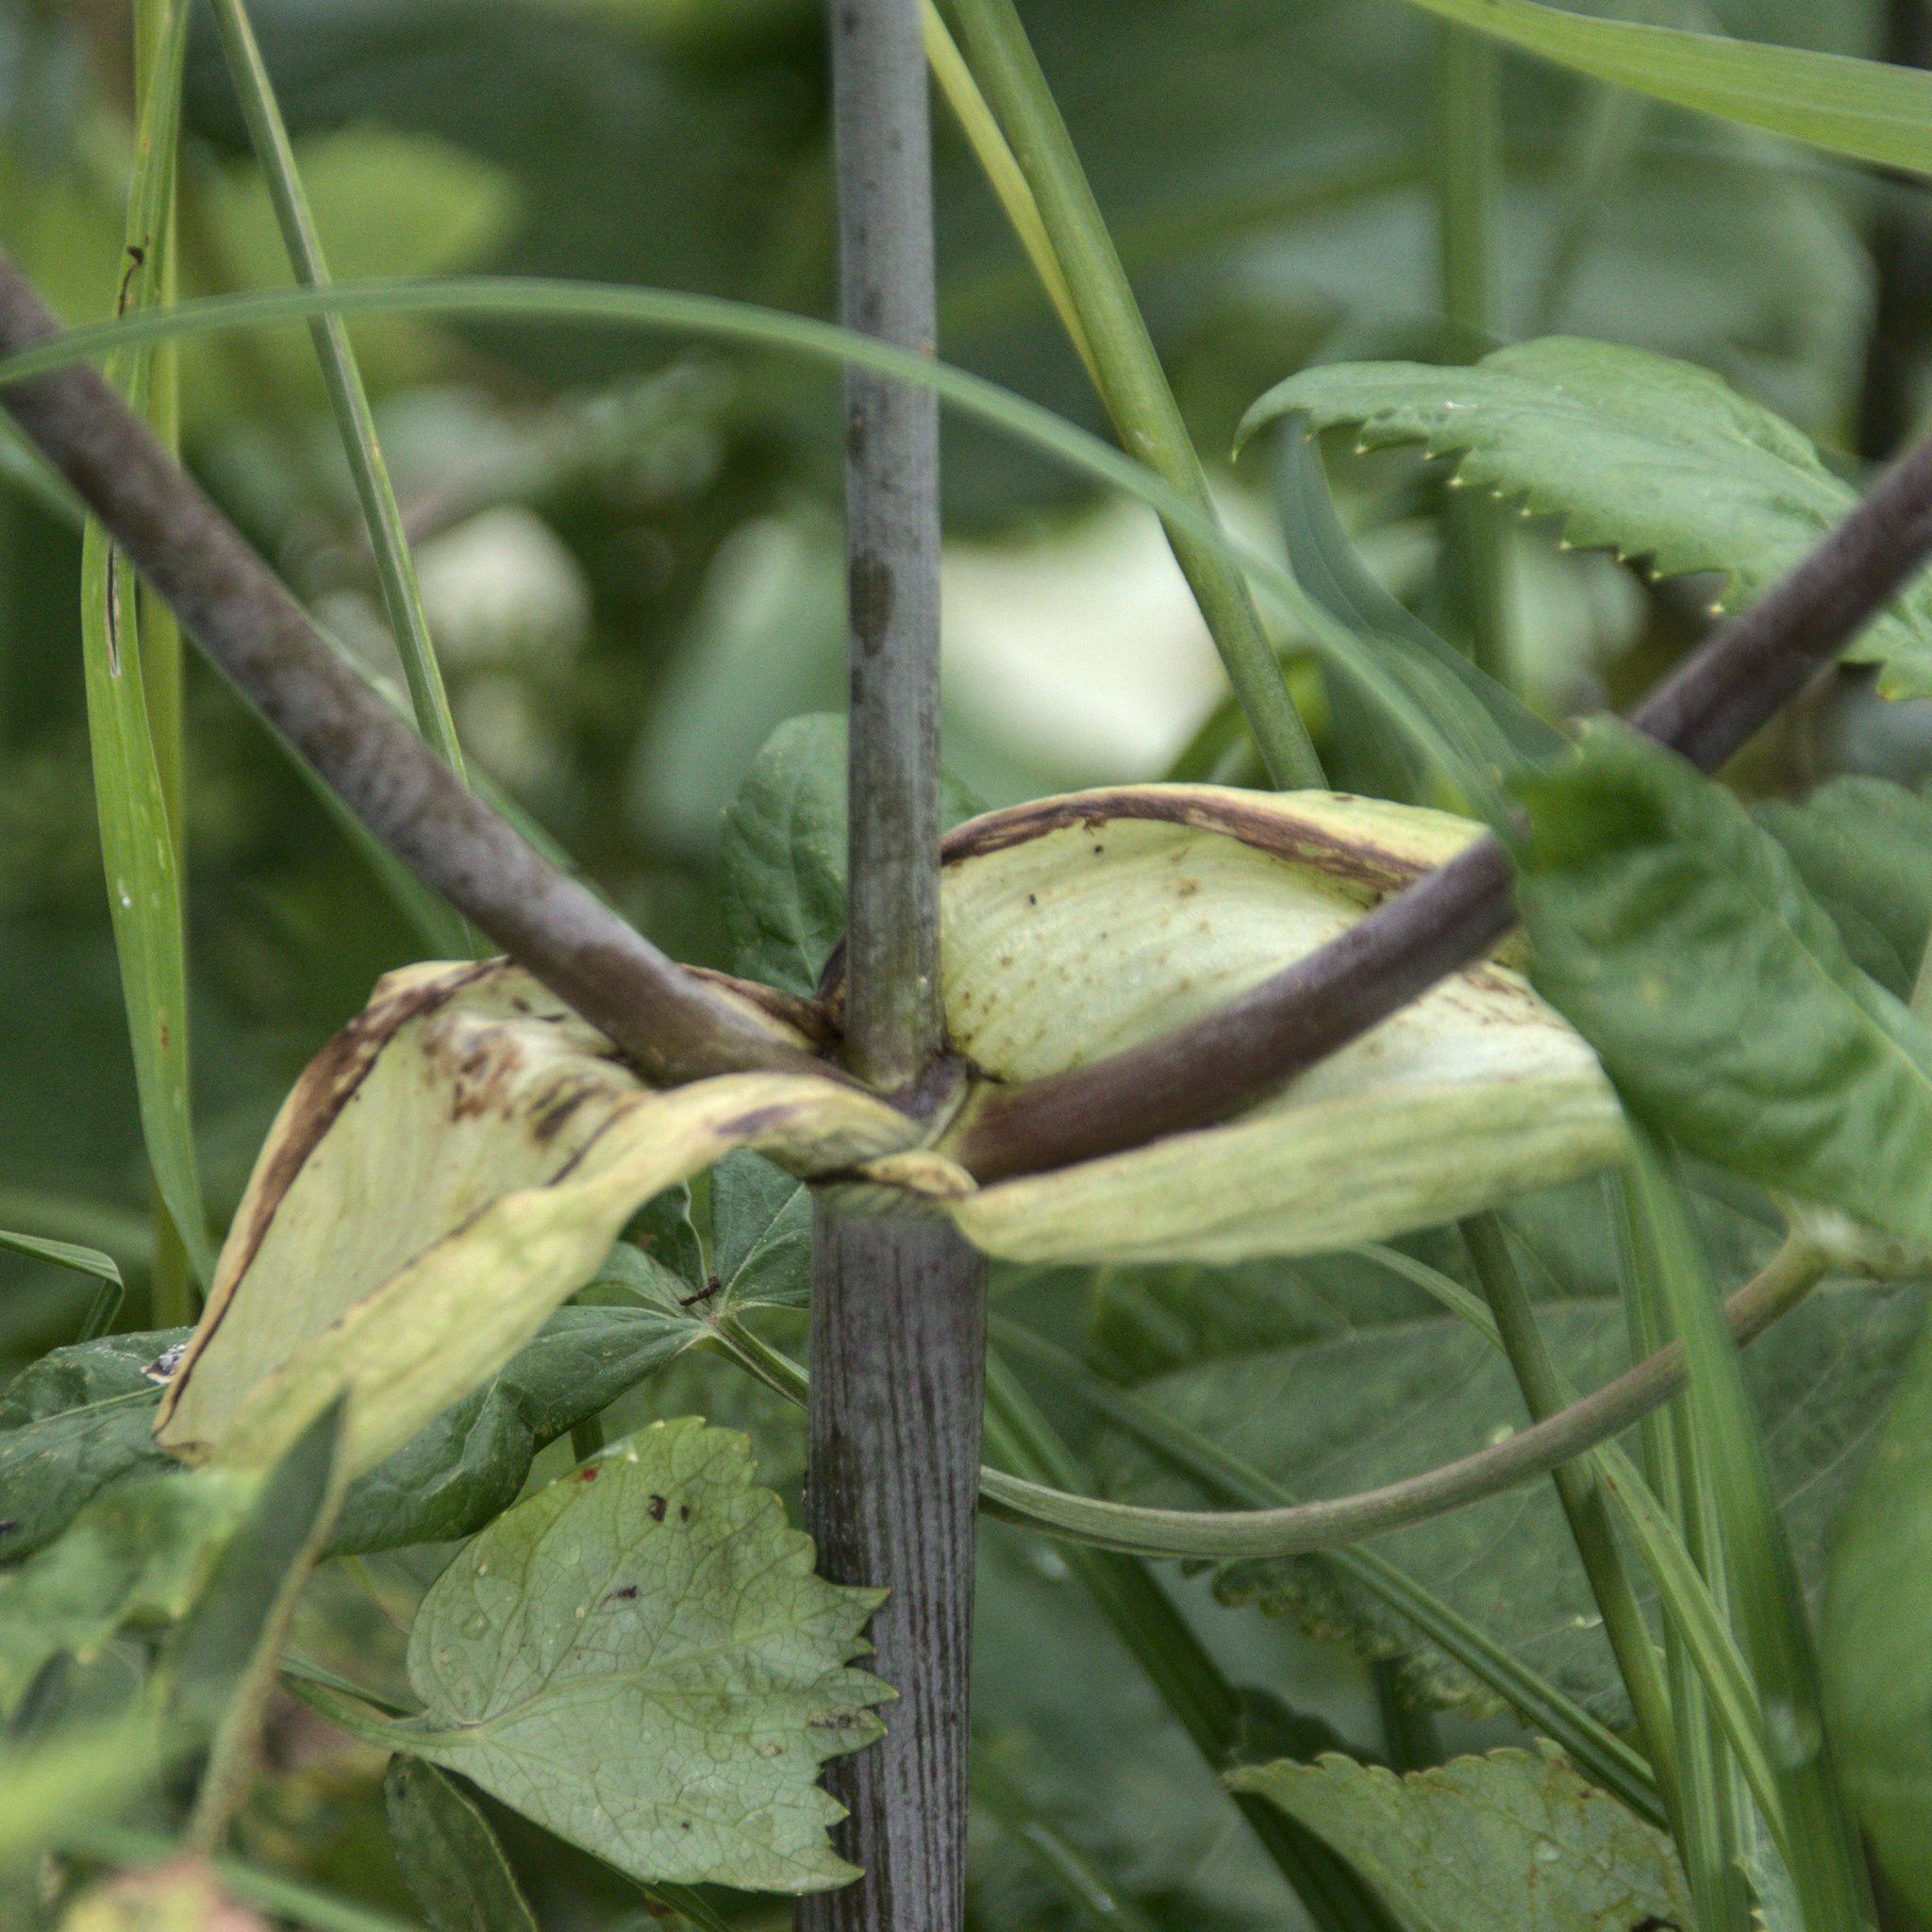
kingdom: Plantae
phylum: Tracheophyta
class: Magnoliopsida
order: Apiales
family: Apiaceae
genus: Angelica
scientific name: Angelica archangelica
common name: Garden angelica
